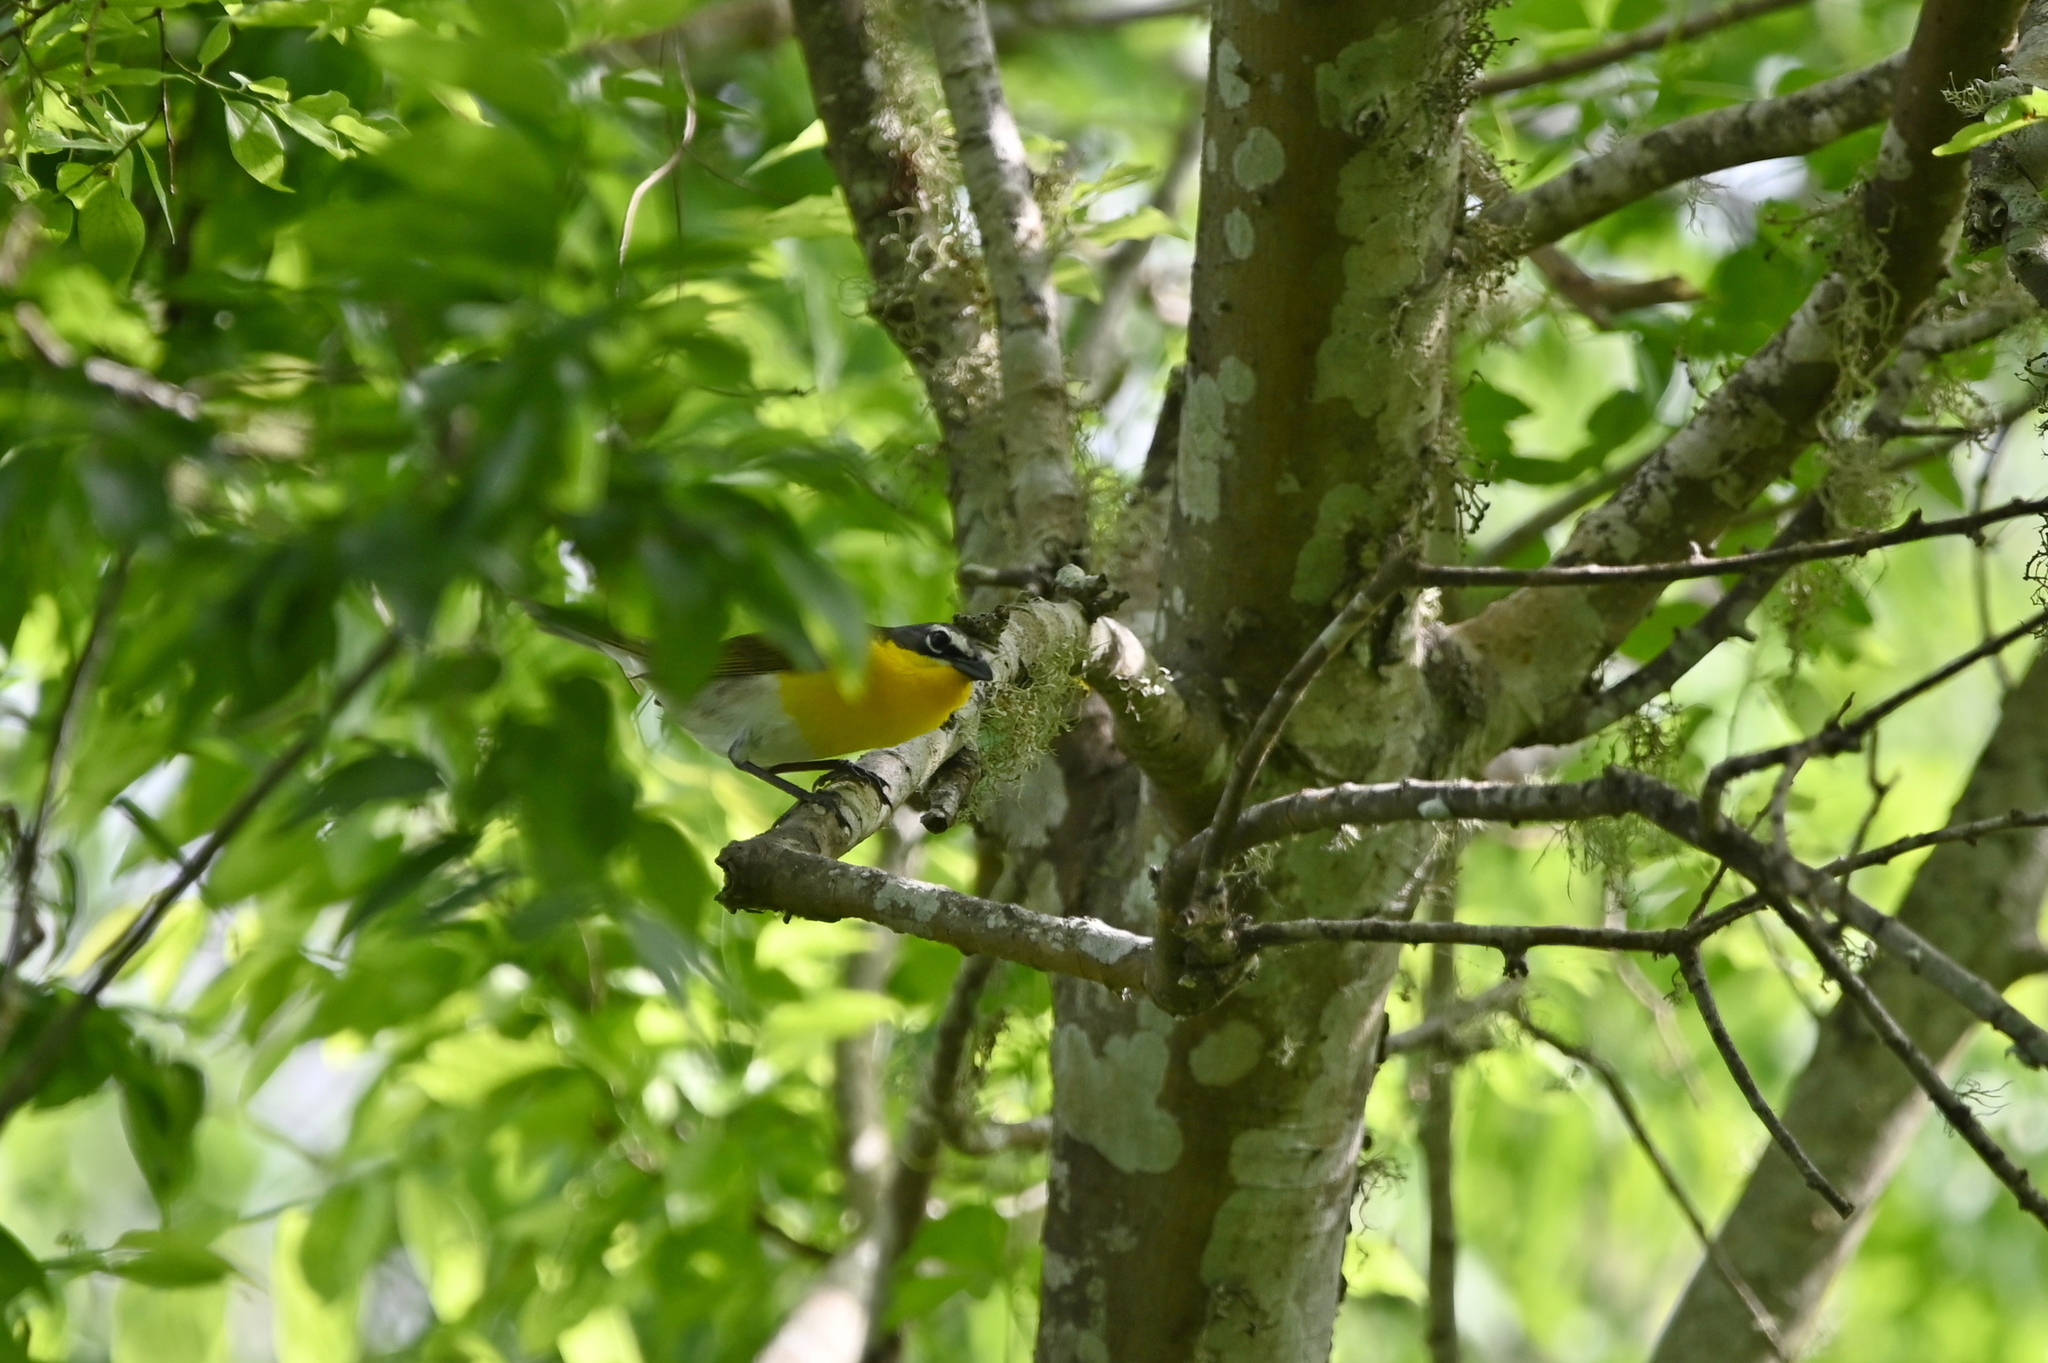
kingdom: Animalia
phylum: Chordata
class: Aves
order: Passeriformes
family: Parulidae
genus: Icteria
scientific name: Icteria virens
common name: Yellow-breasted chat
